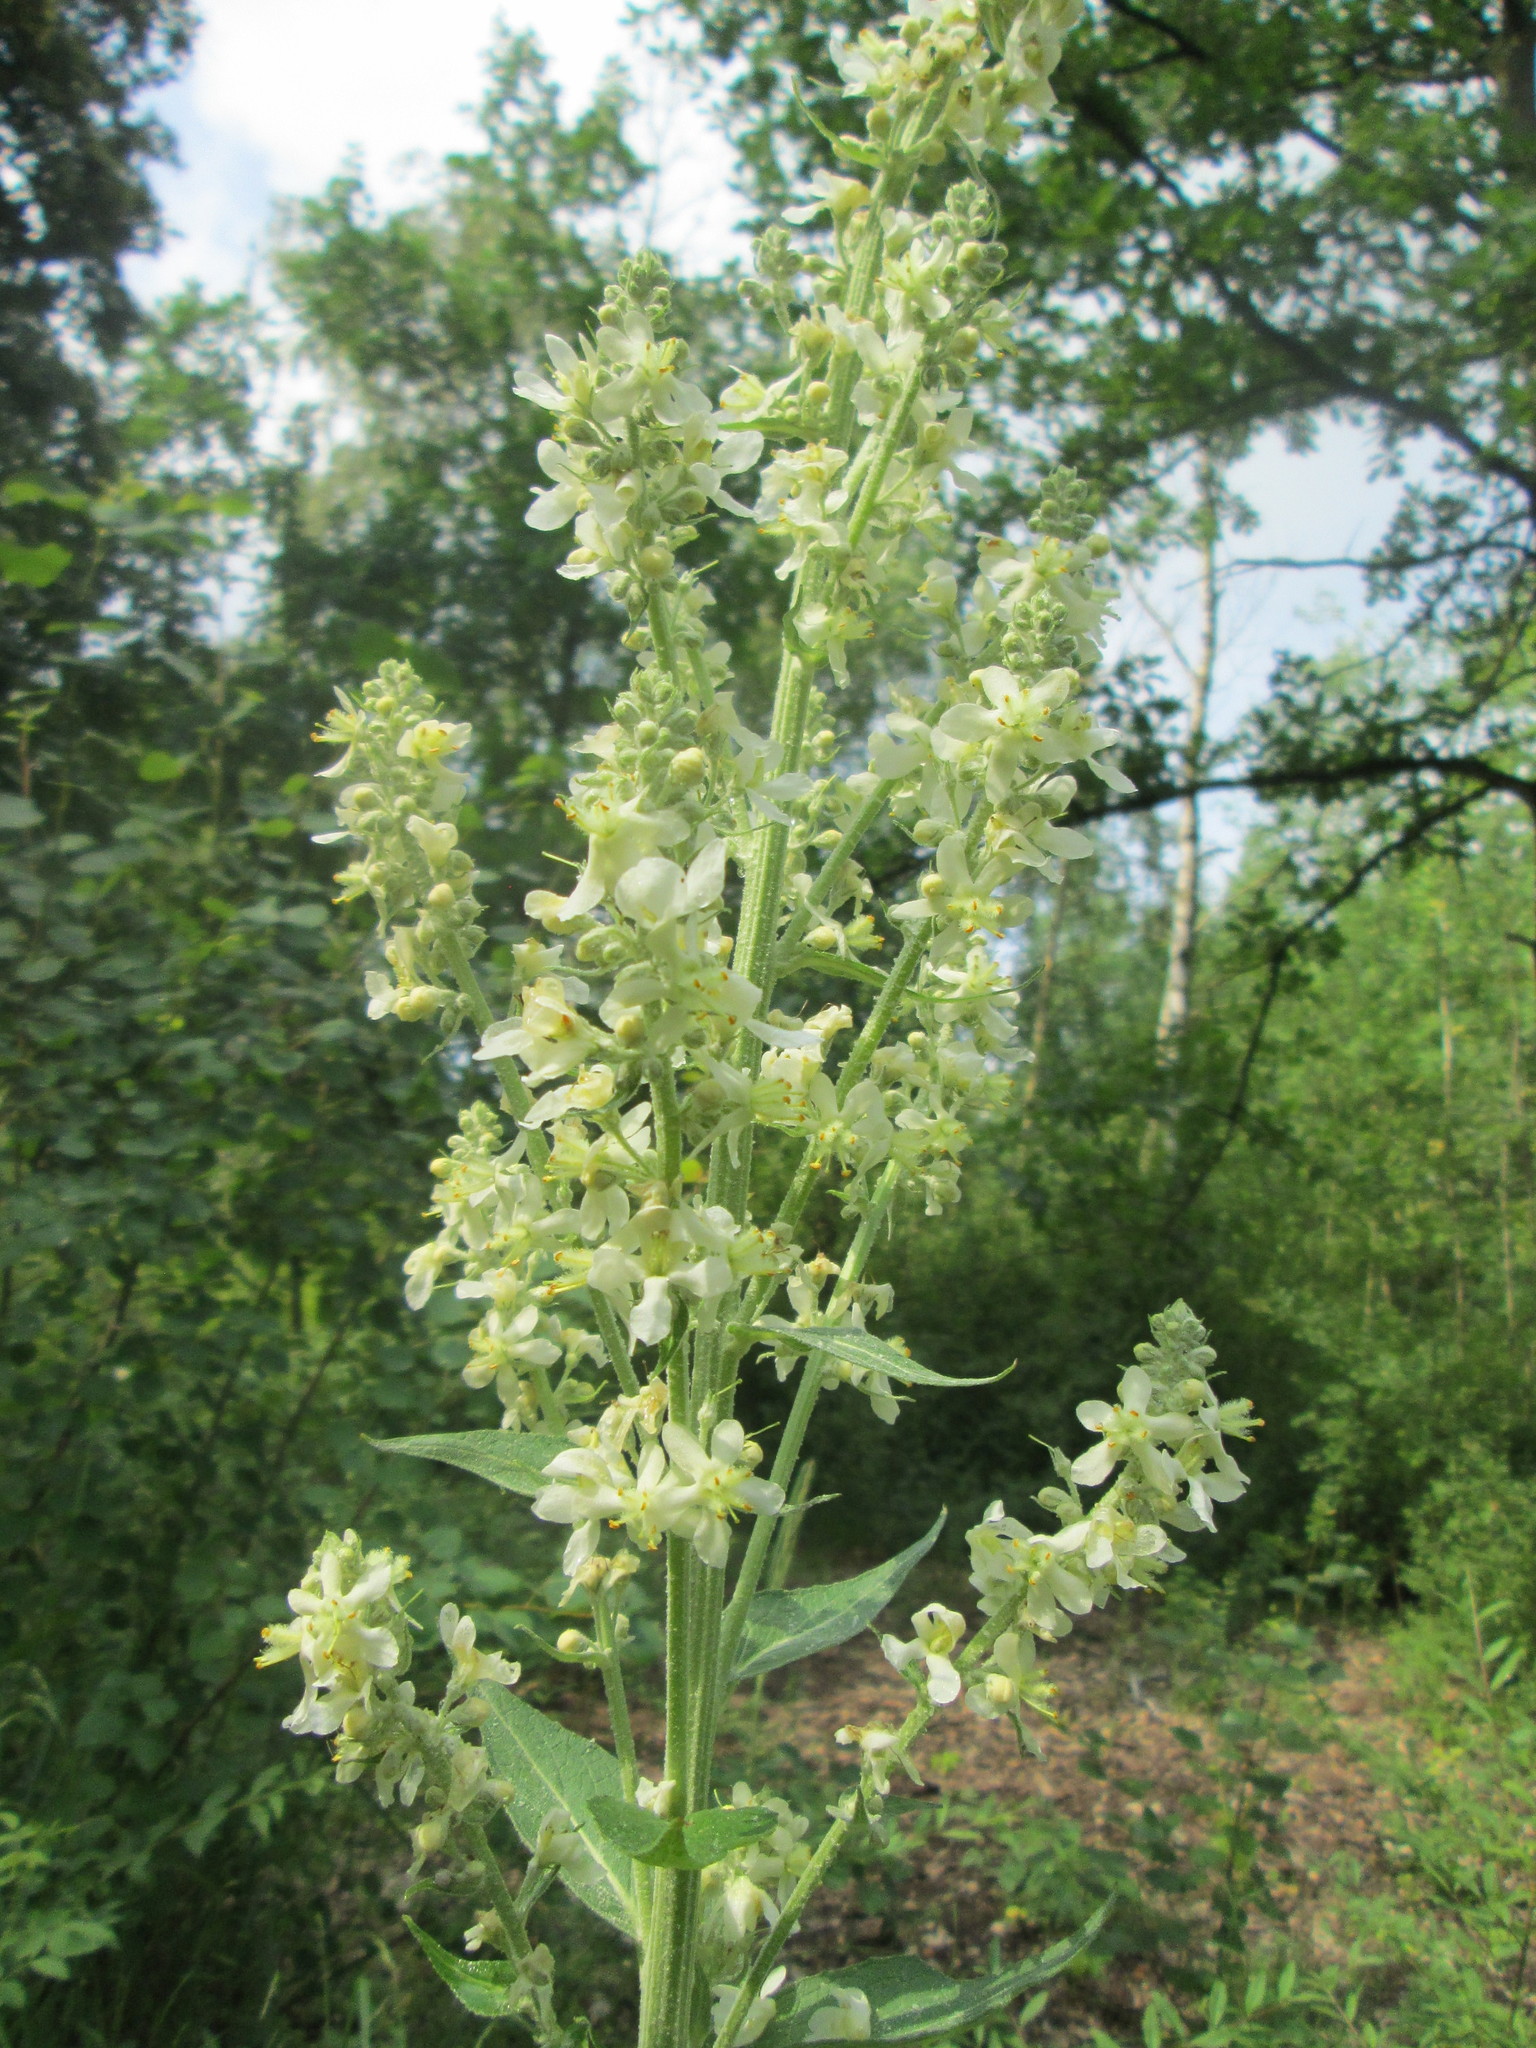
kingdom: Plantae
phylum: Tracheophyta
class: Magnoliopsida
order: Lamiales
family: Scrophulariaceae
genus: Verbascum
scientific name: Verbascum lychnitis
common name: White mullein
